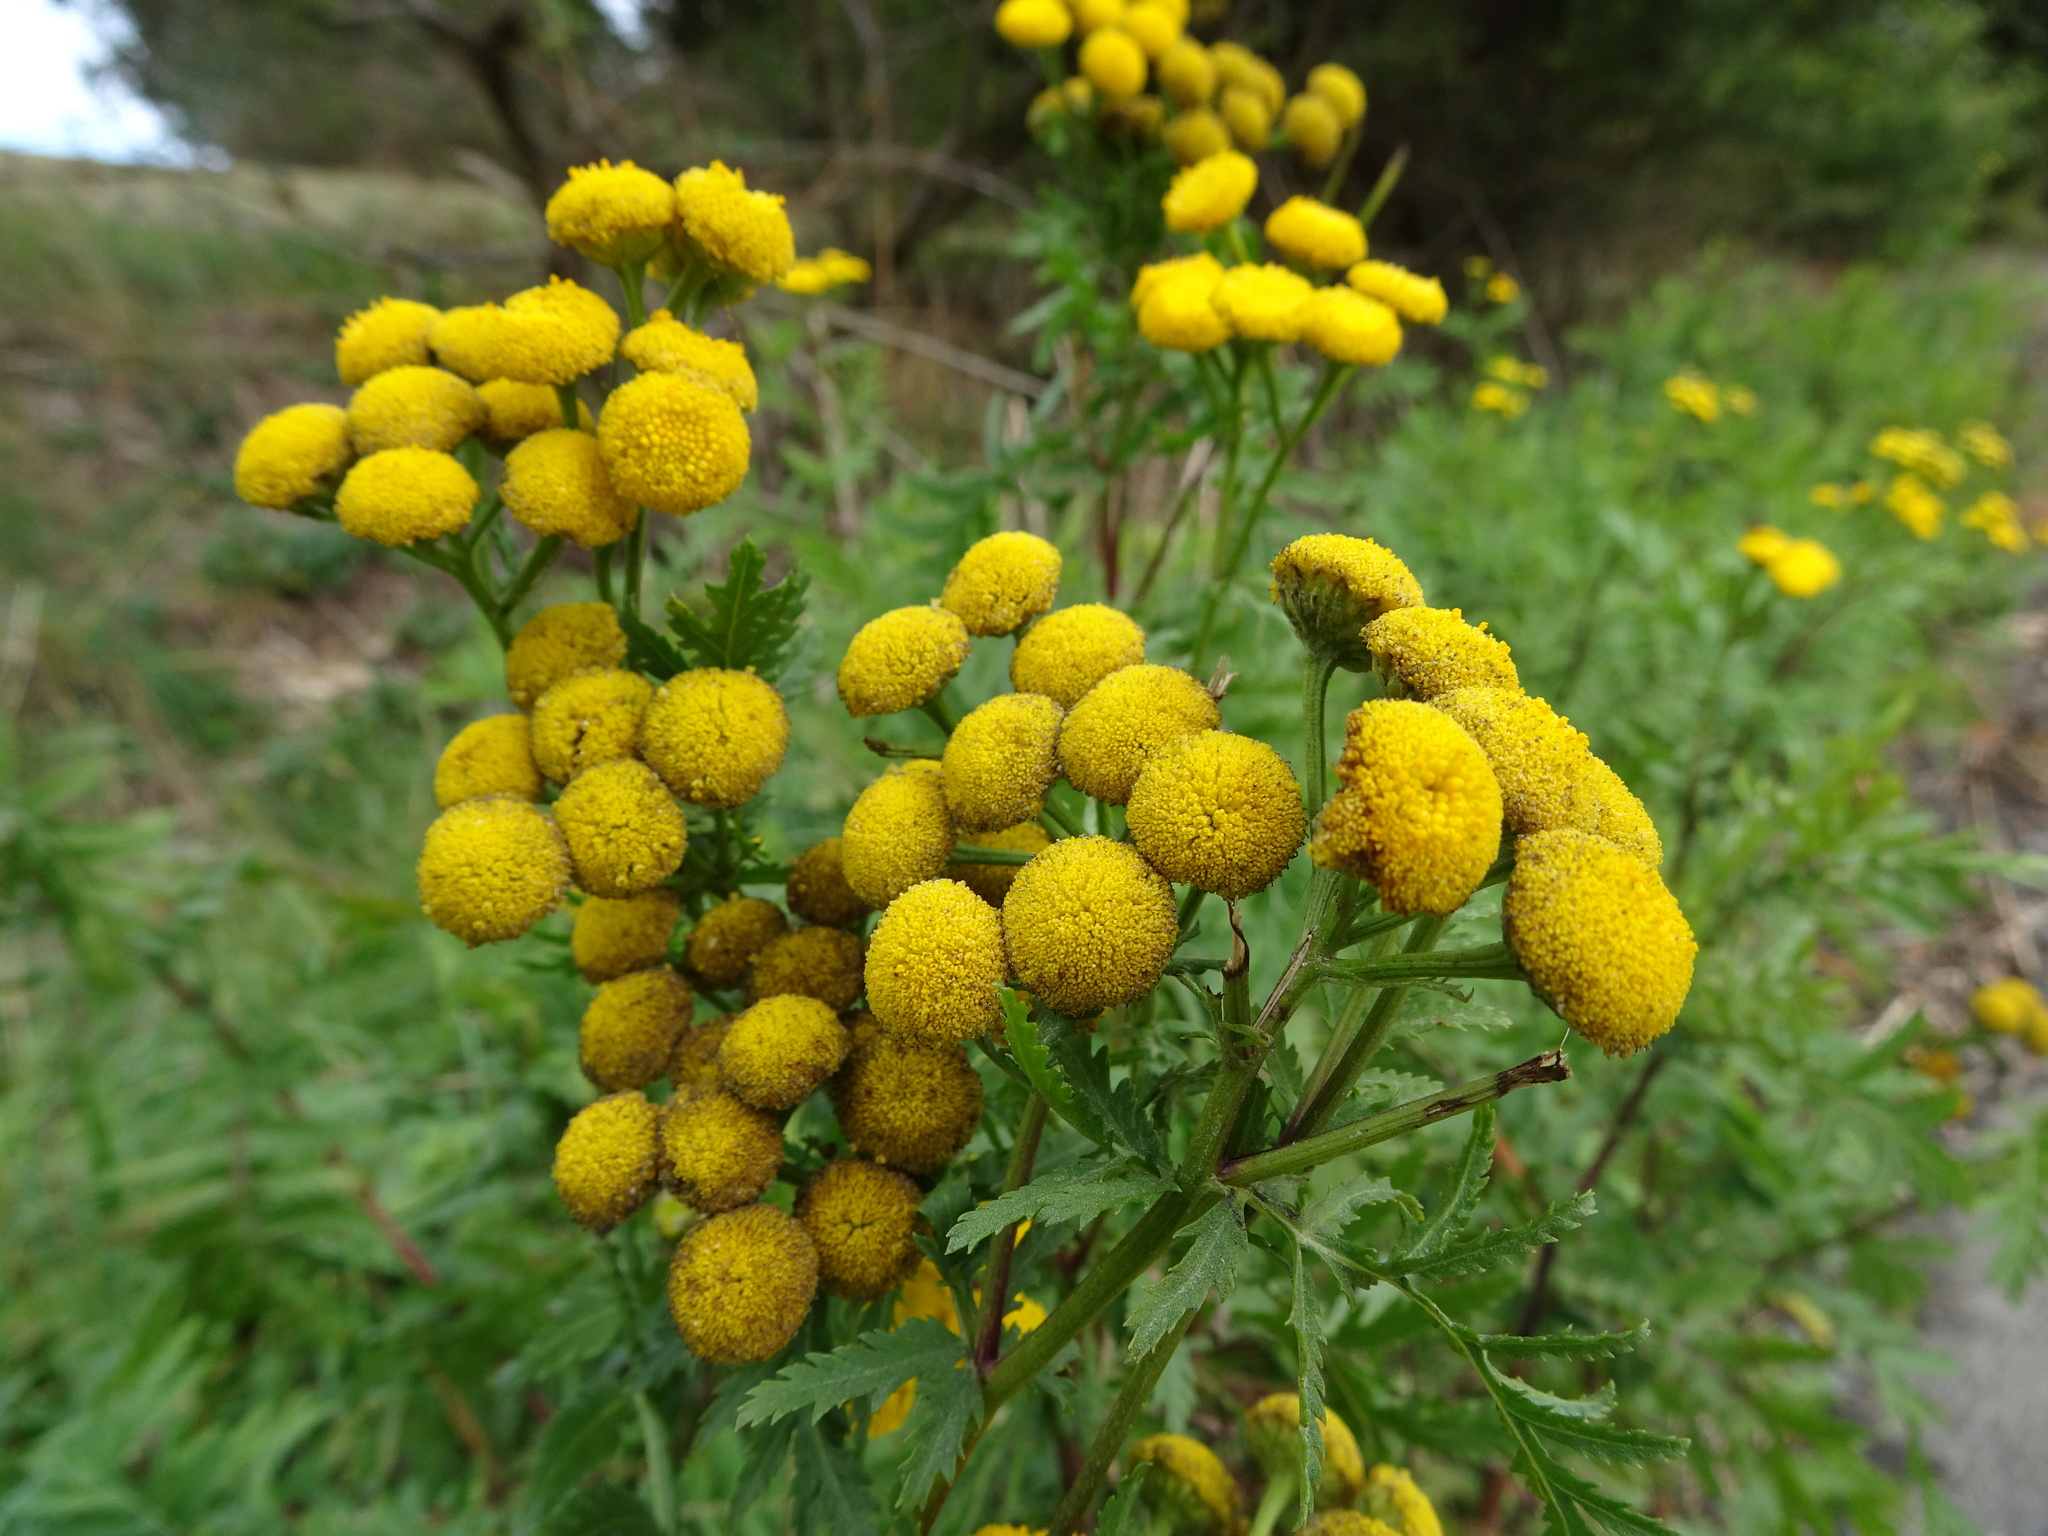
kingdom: Plantae
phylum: Tracheophyta
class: Magnoliopsida
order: Asterales
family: Asteraceae
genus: Tanacetum
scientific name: Tanacetum vulgare
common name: Common tansy
